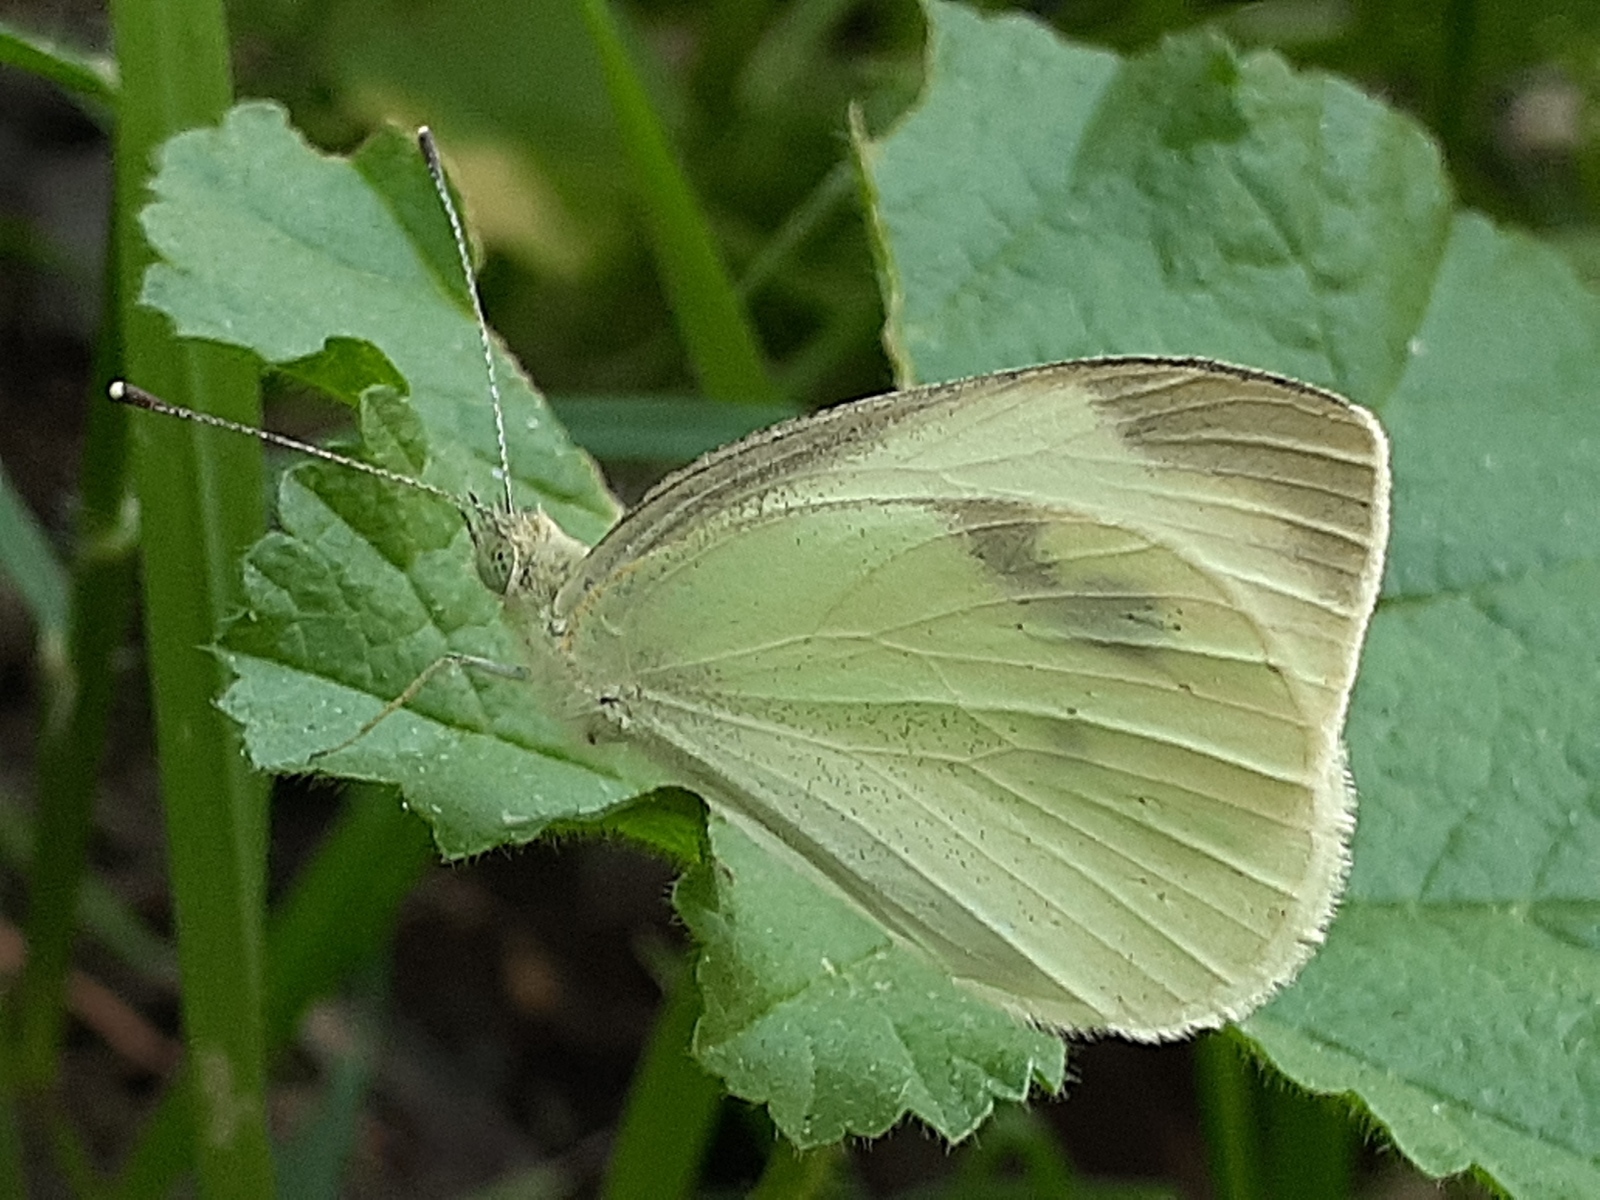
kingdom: Animalia
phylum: Arthropoda
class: Insecta
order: Lepidoptera
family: Pieridae
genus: Pieris
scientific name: Pieris rapae
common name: Small white
